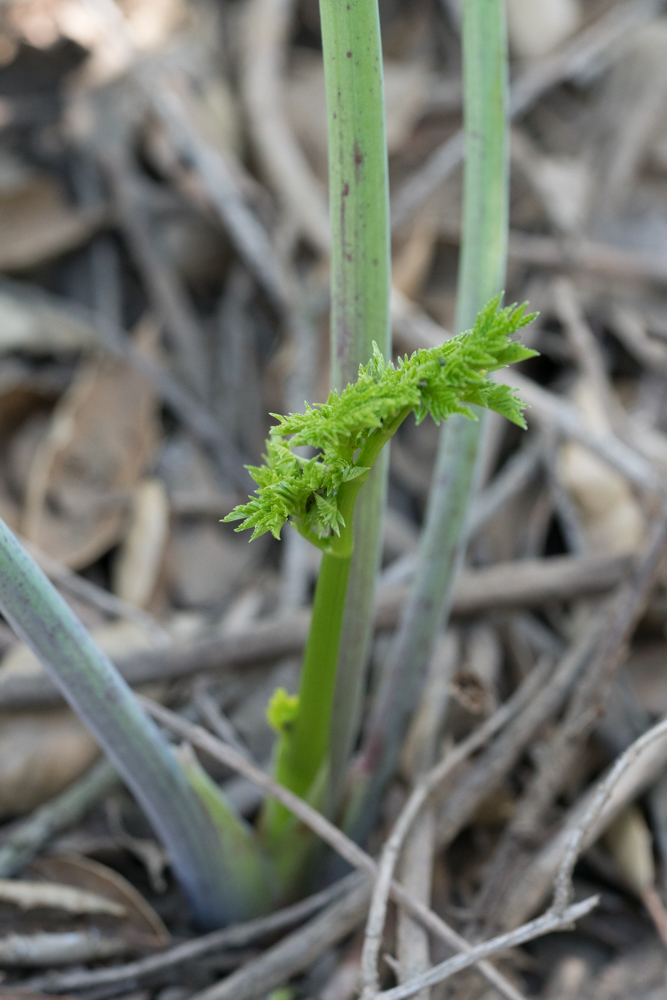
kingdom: Plantae
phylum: Tracheophyta
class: Magnoliopsida
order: Apiales
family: Apiaceae
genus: Conium
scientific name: Conium maculatum
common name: Hemlock
